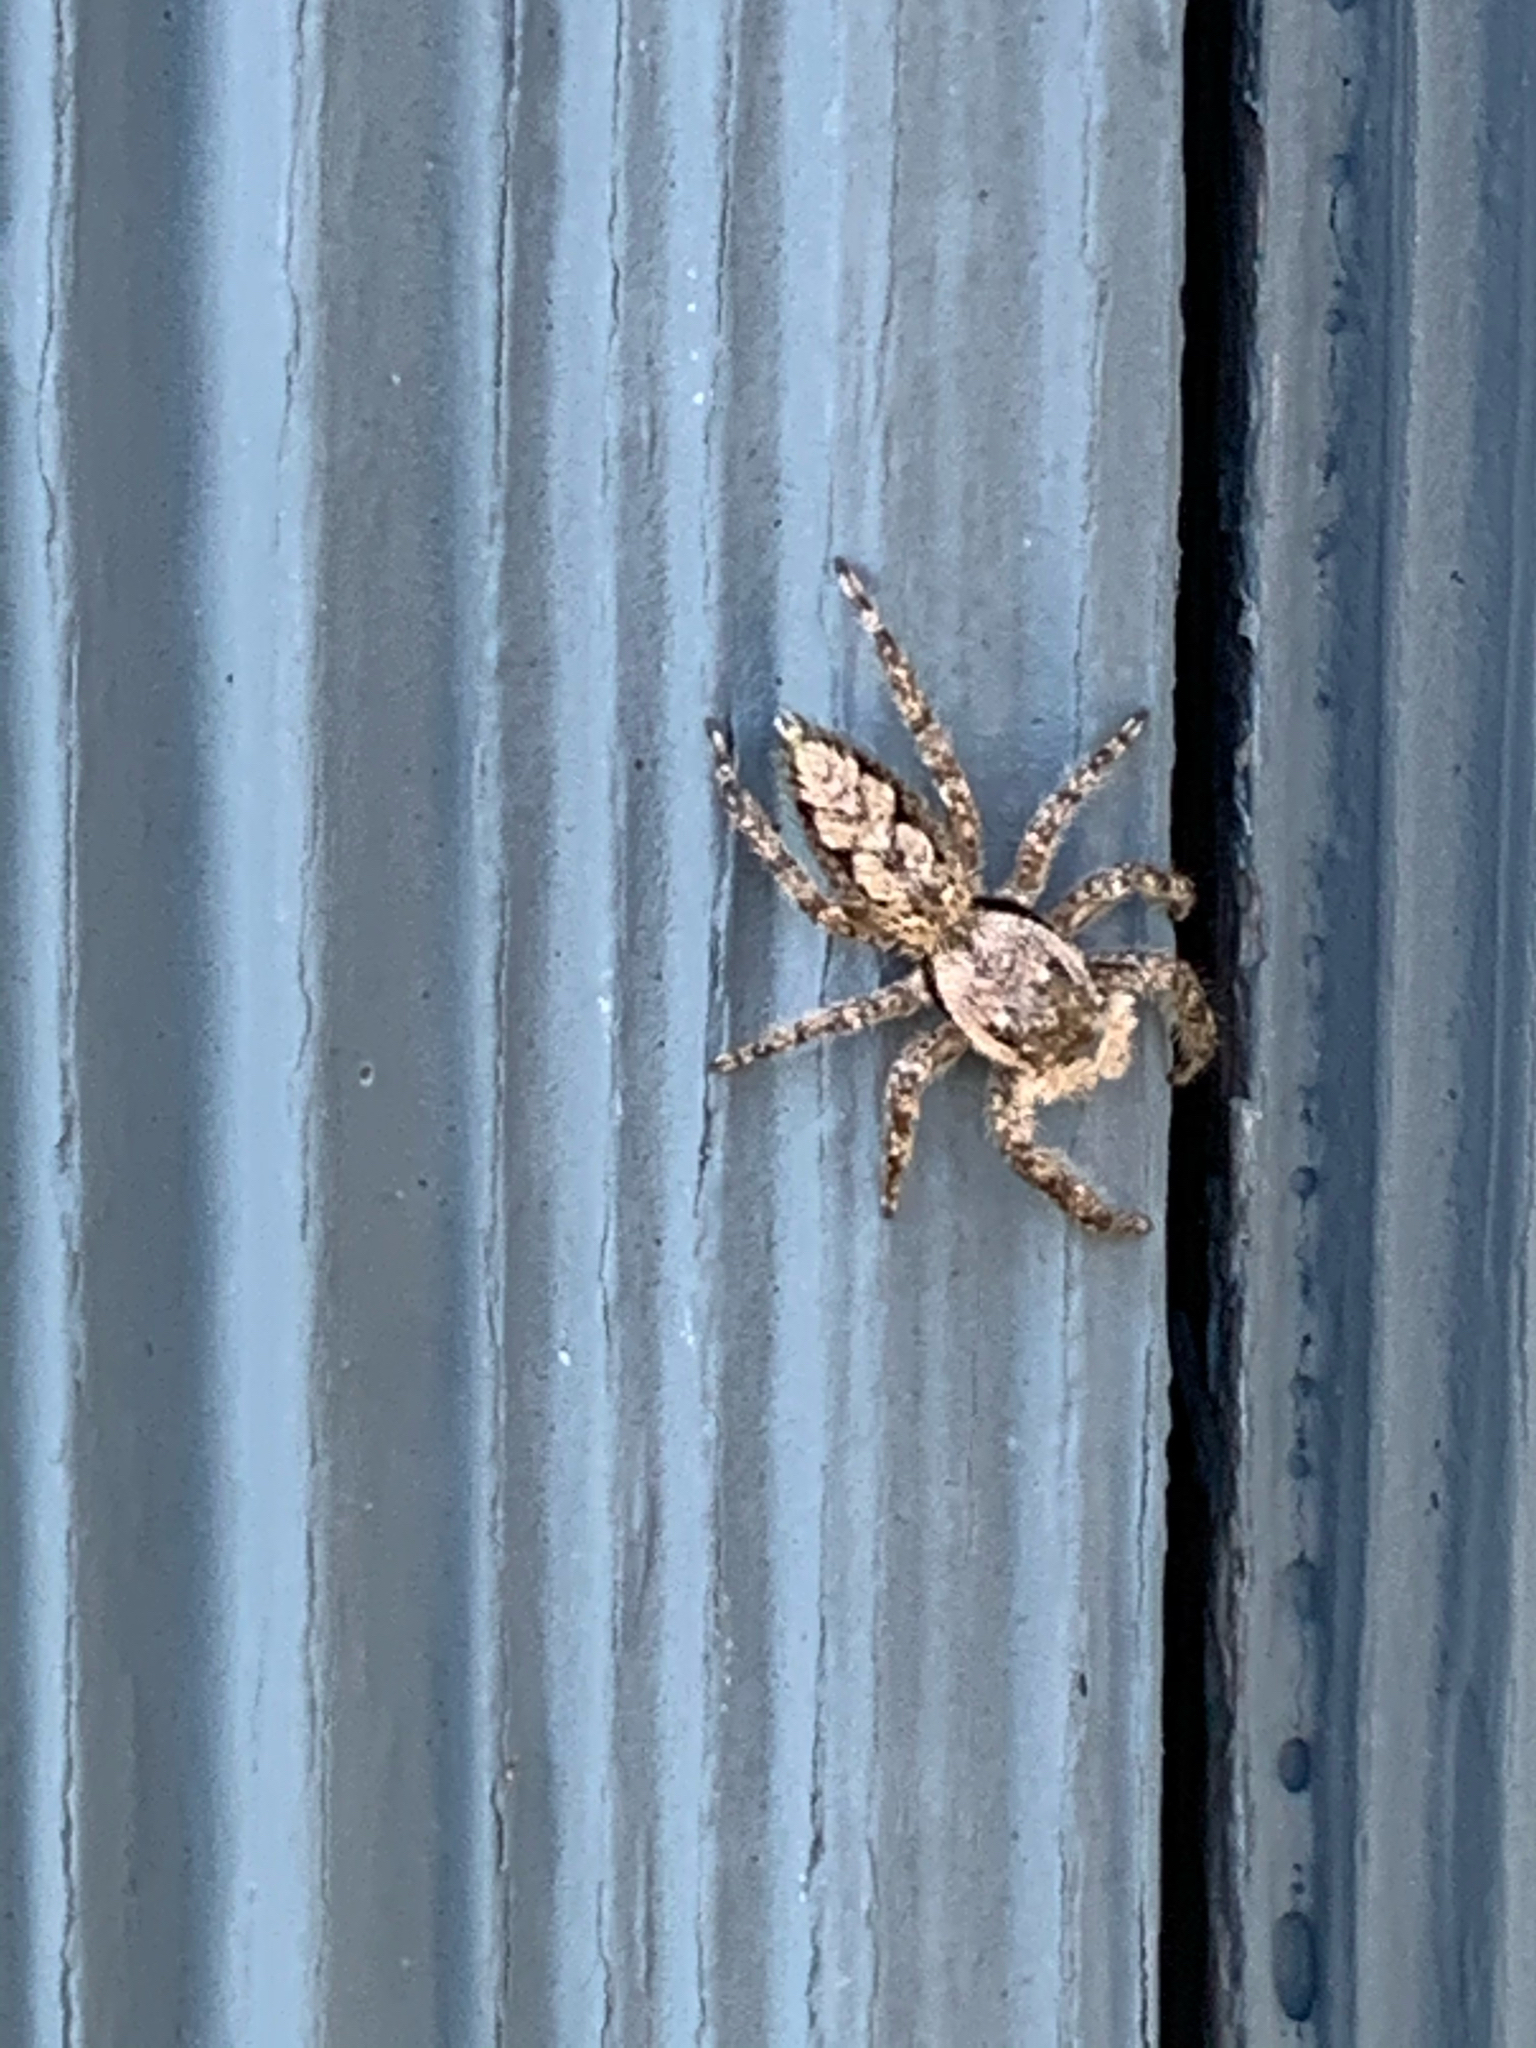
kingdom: Animalia
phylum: Arthropoda
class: Arachnida
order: Araneae
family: Salticidae
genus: Platycryptus
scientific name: Platycryptus undatus
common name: Tan jumping spider
